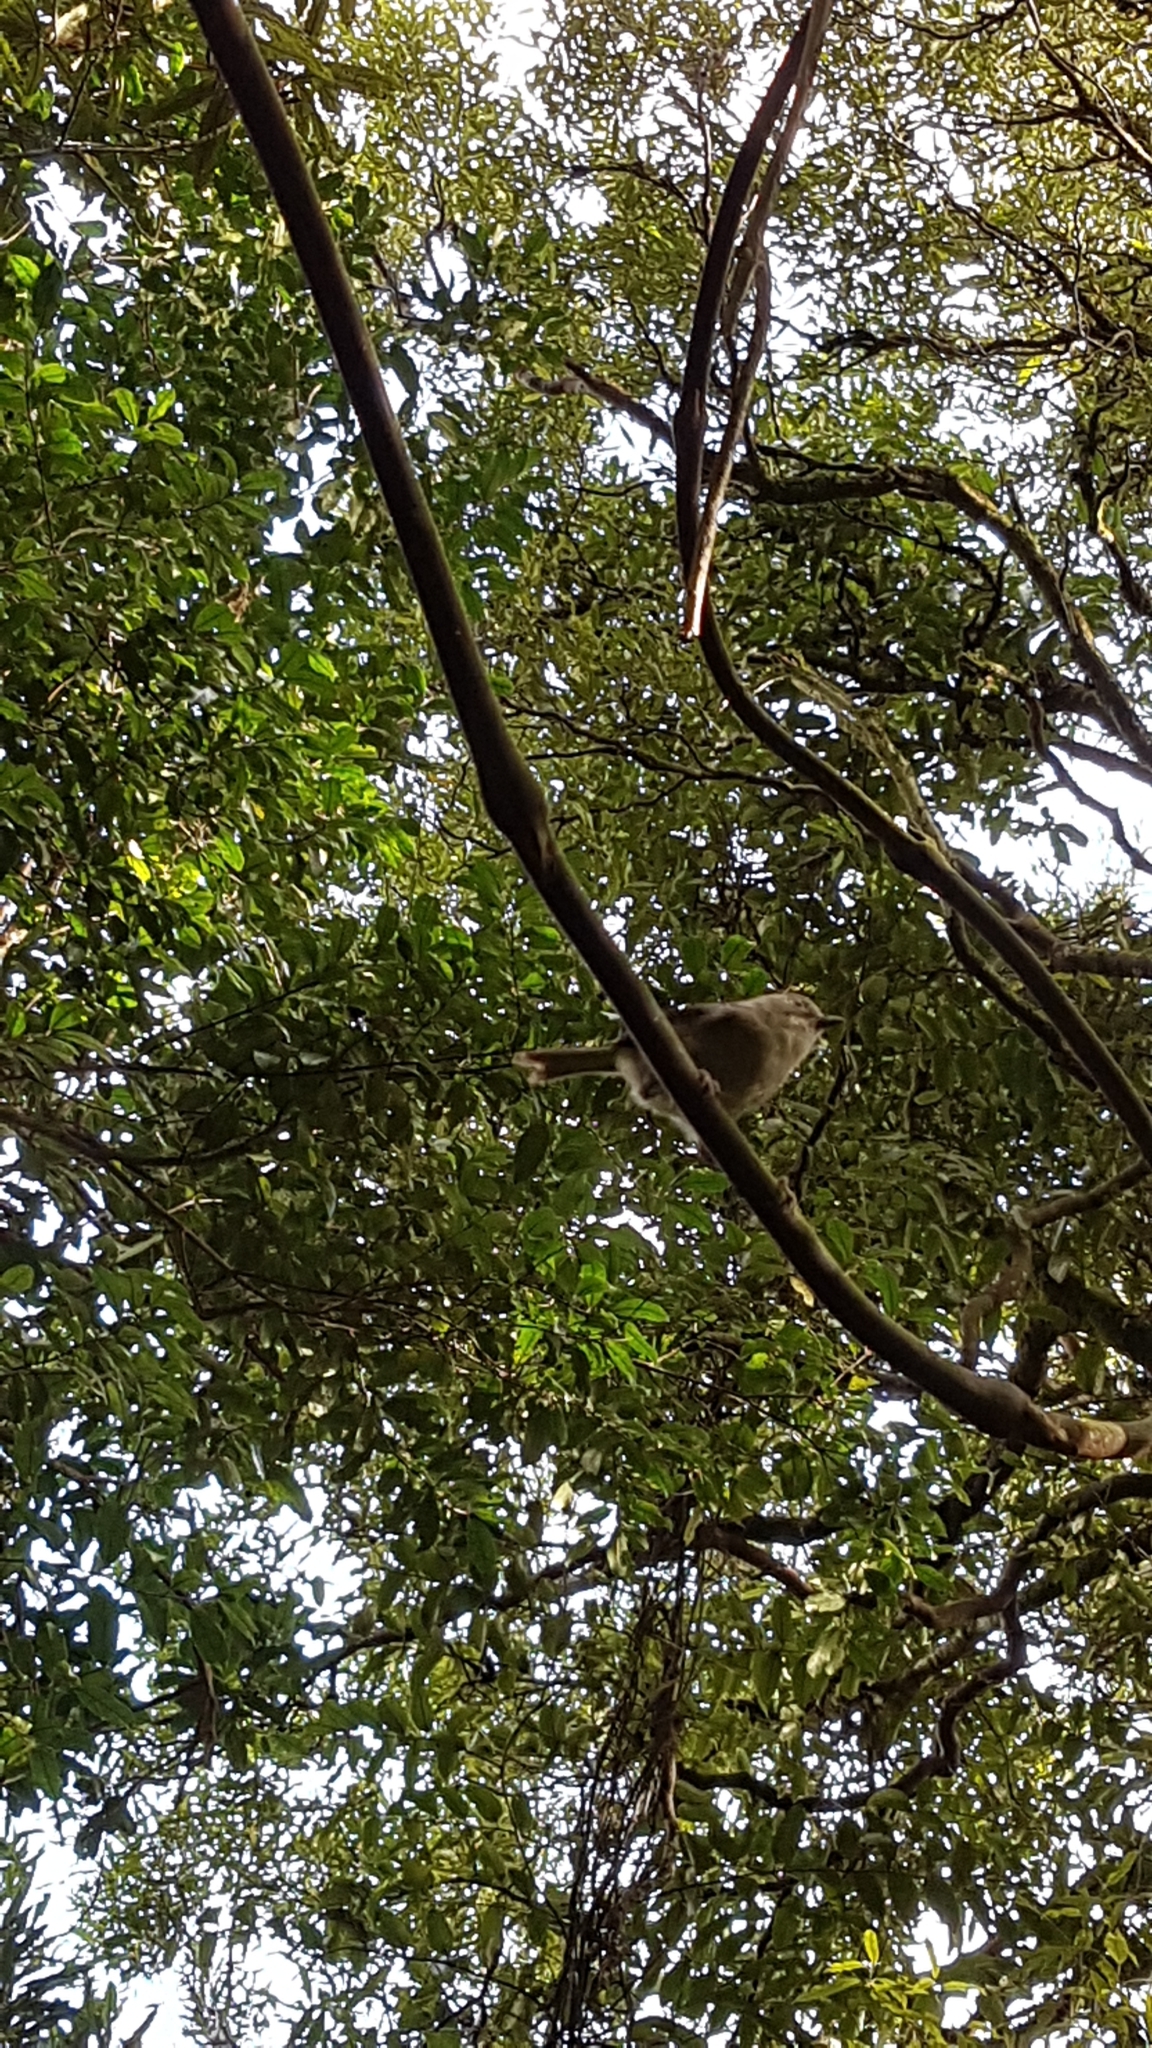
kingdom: Animalia
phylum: Chordata
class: Aves
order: Passeriformes
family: Acanthizidae
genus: Mohoua
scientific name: Mohoua albicilla
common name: Whitehead
